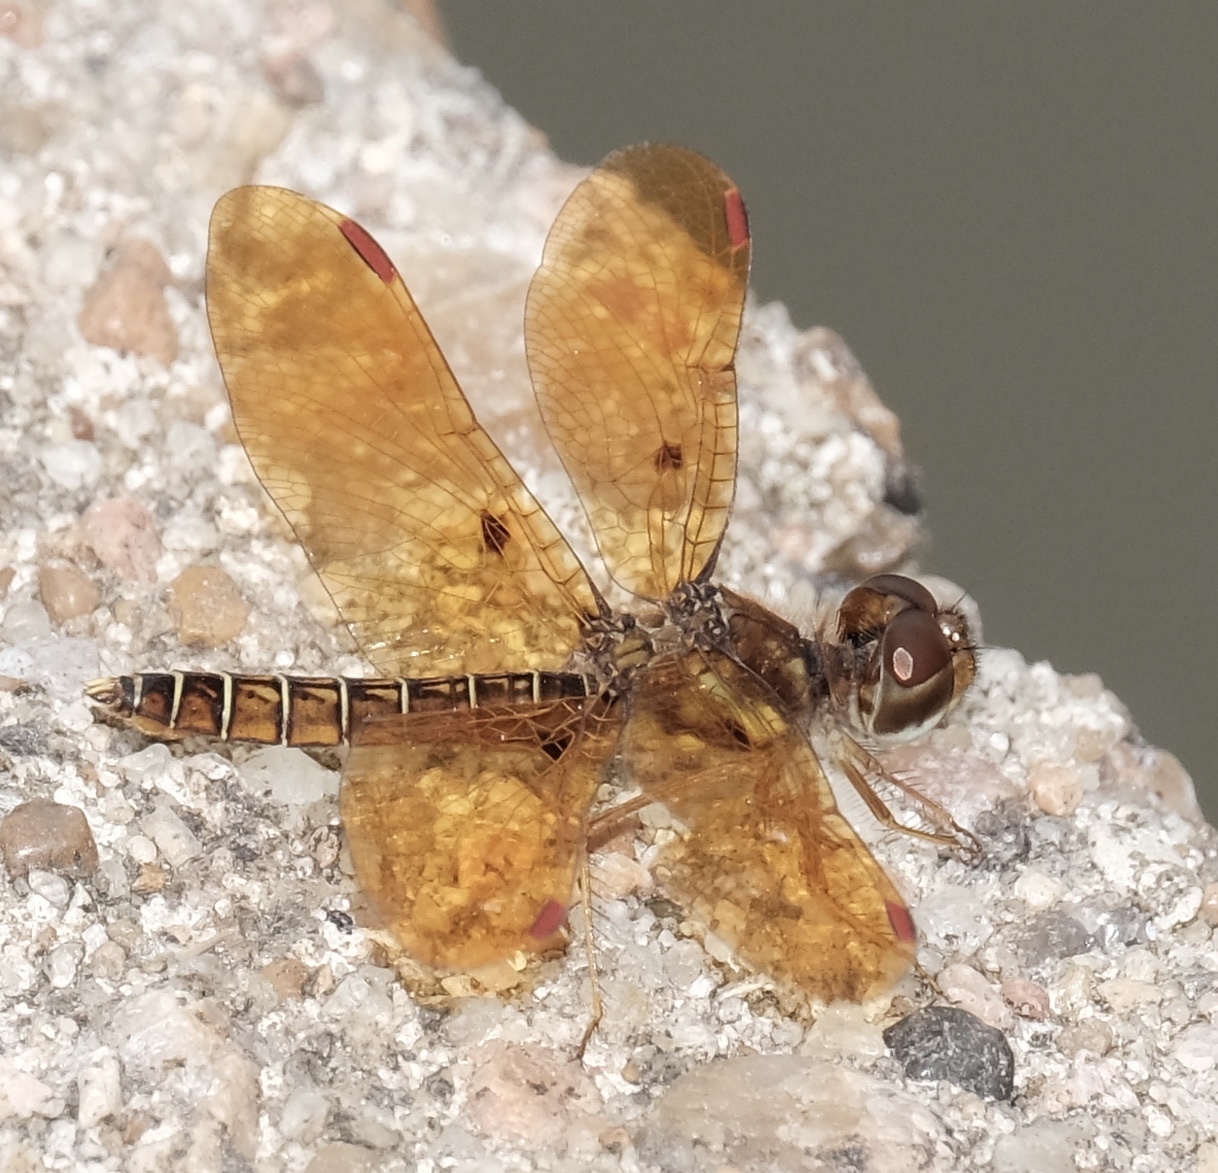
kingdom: Animalia
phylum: Arthropoda
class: Insecta
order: Odonata
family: Libellulidae
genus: Perithemis
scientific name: Perithemis tenera
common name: Eastern amberwing
